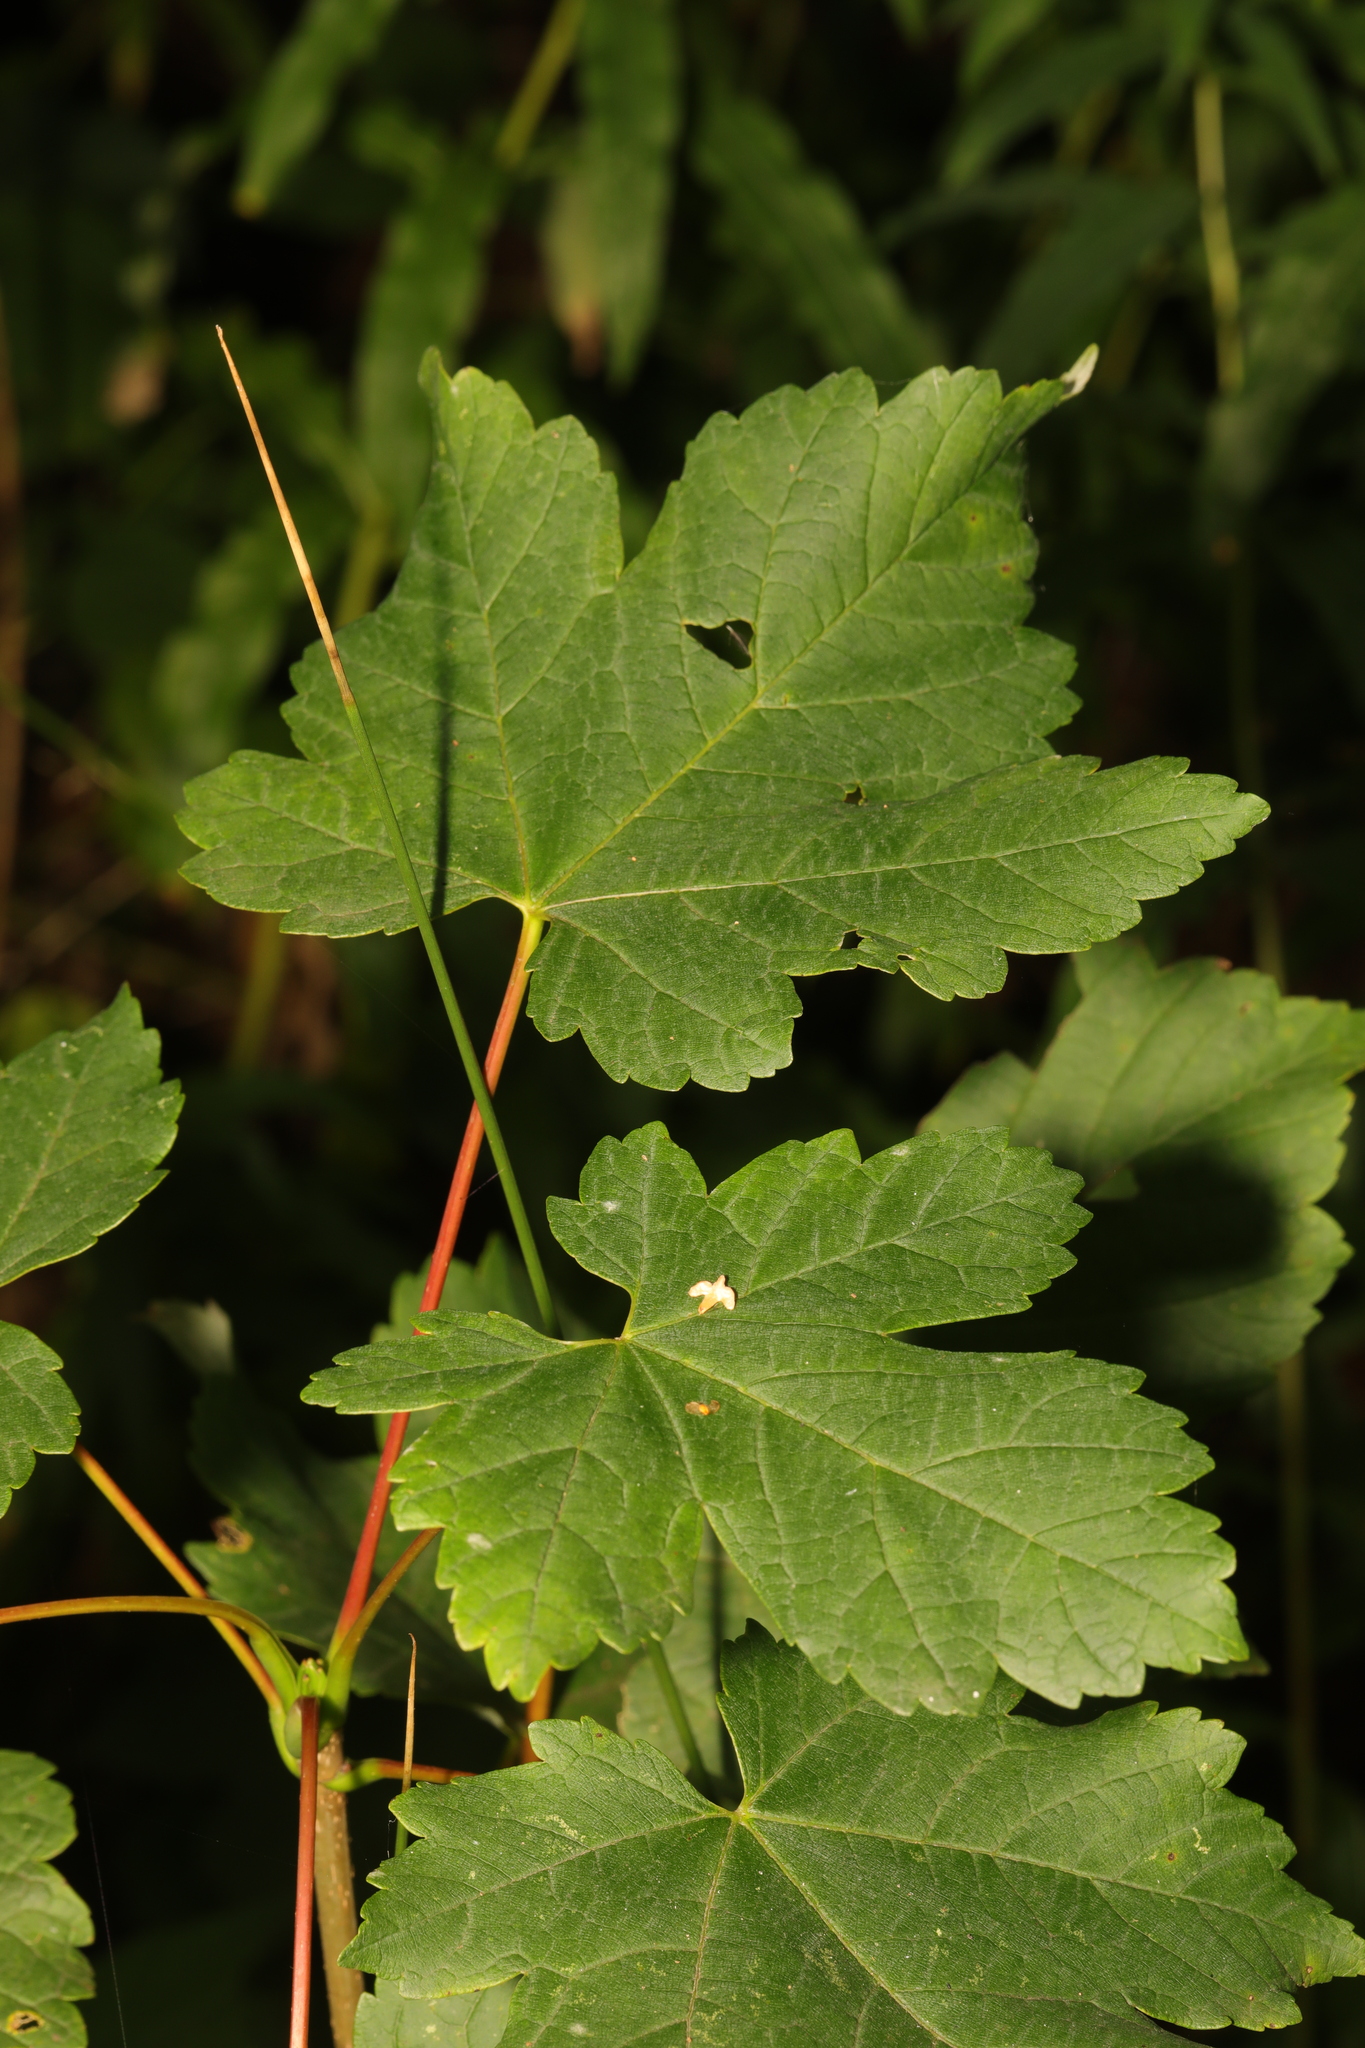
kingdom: Plantae
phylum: Tracheophyta
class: Magnoliopsida
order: Sapindales
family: Sapindaceae
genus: Acer
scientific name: Acer pseudoplatanus
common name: Sycamore
